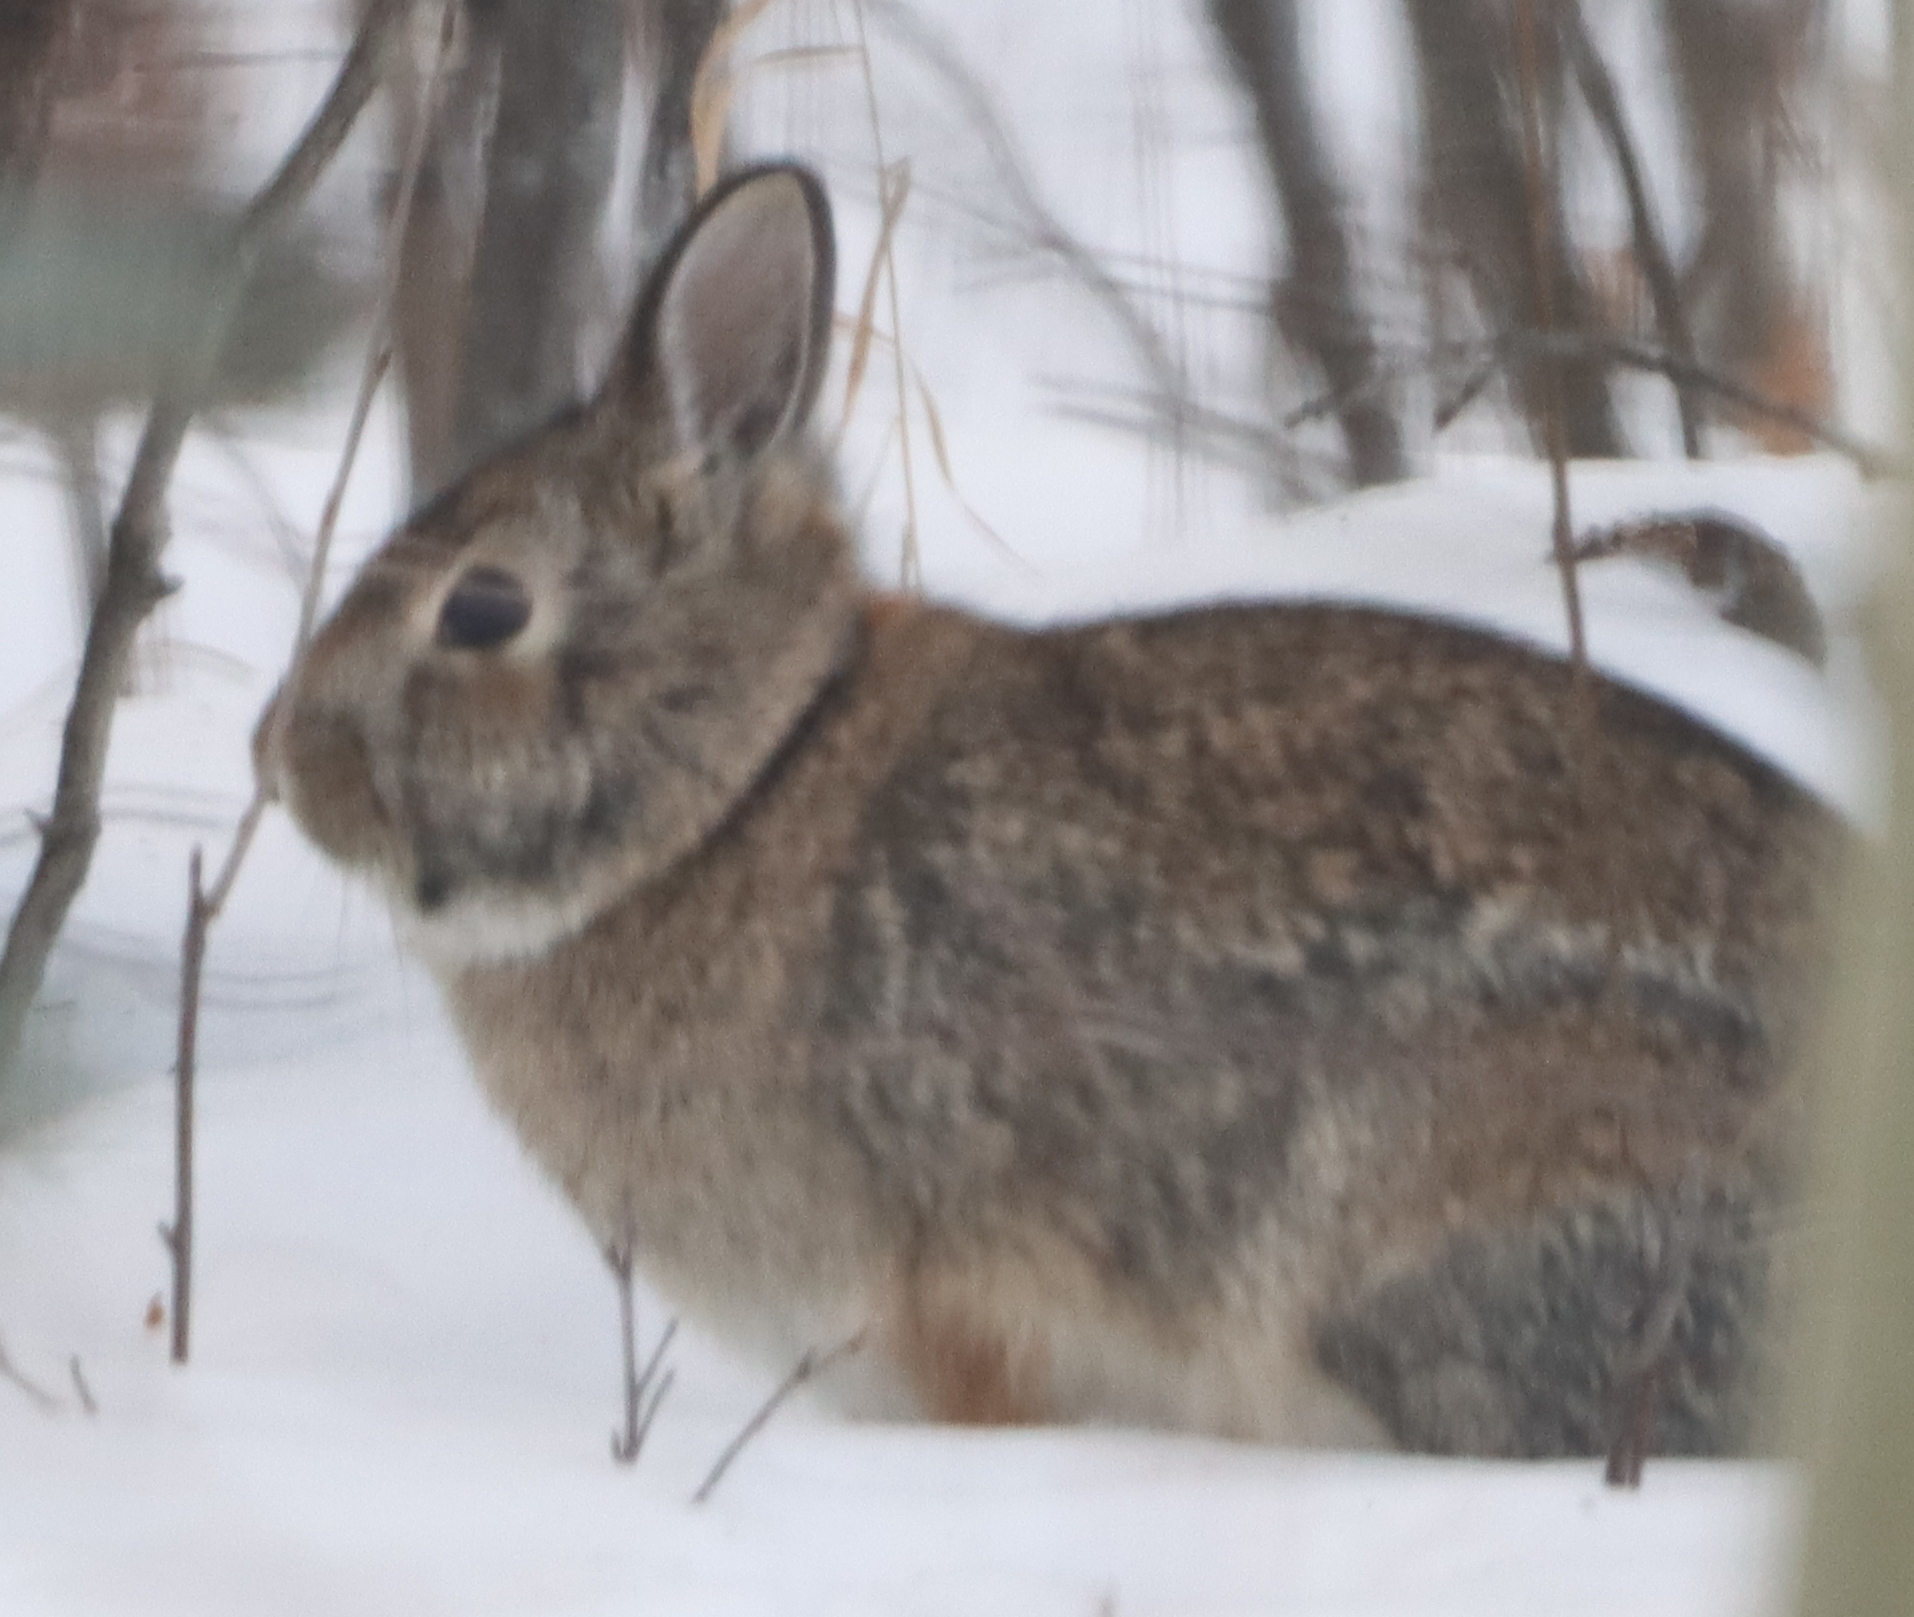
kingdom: Animalia
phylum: Chordata
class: Mammalia
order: Lagomorpha
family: Leporidae
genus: Sylvilagus
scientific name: Sylvilagus floridanus
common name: Eastern cottontail
